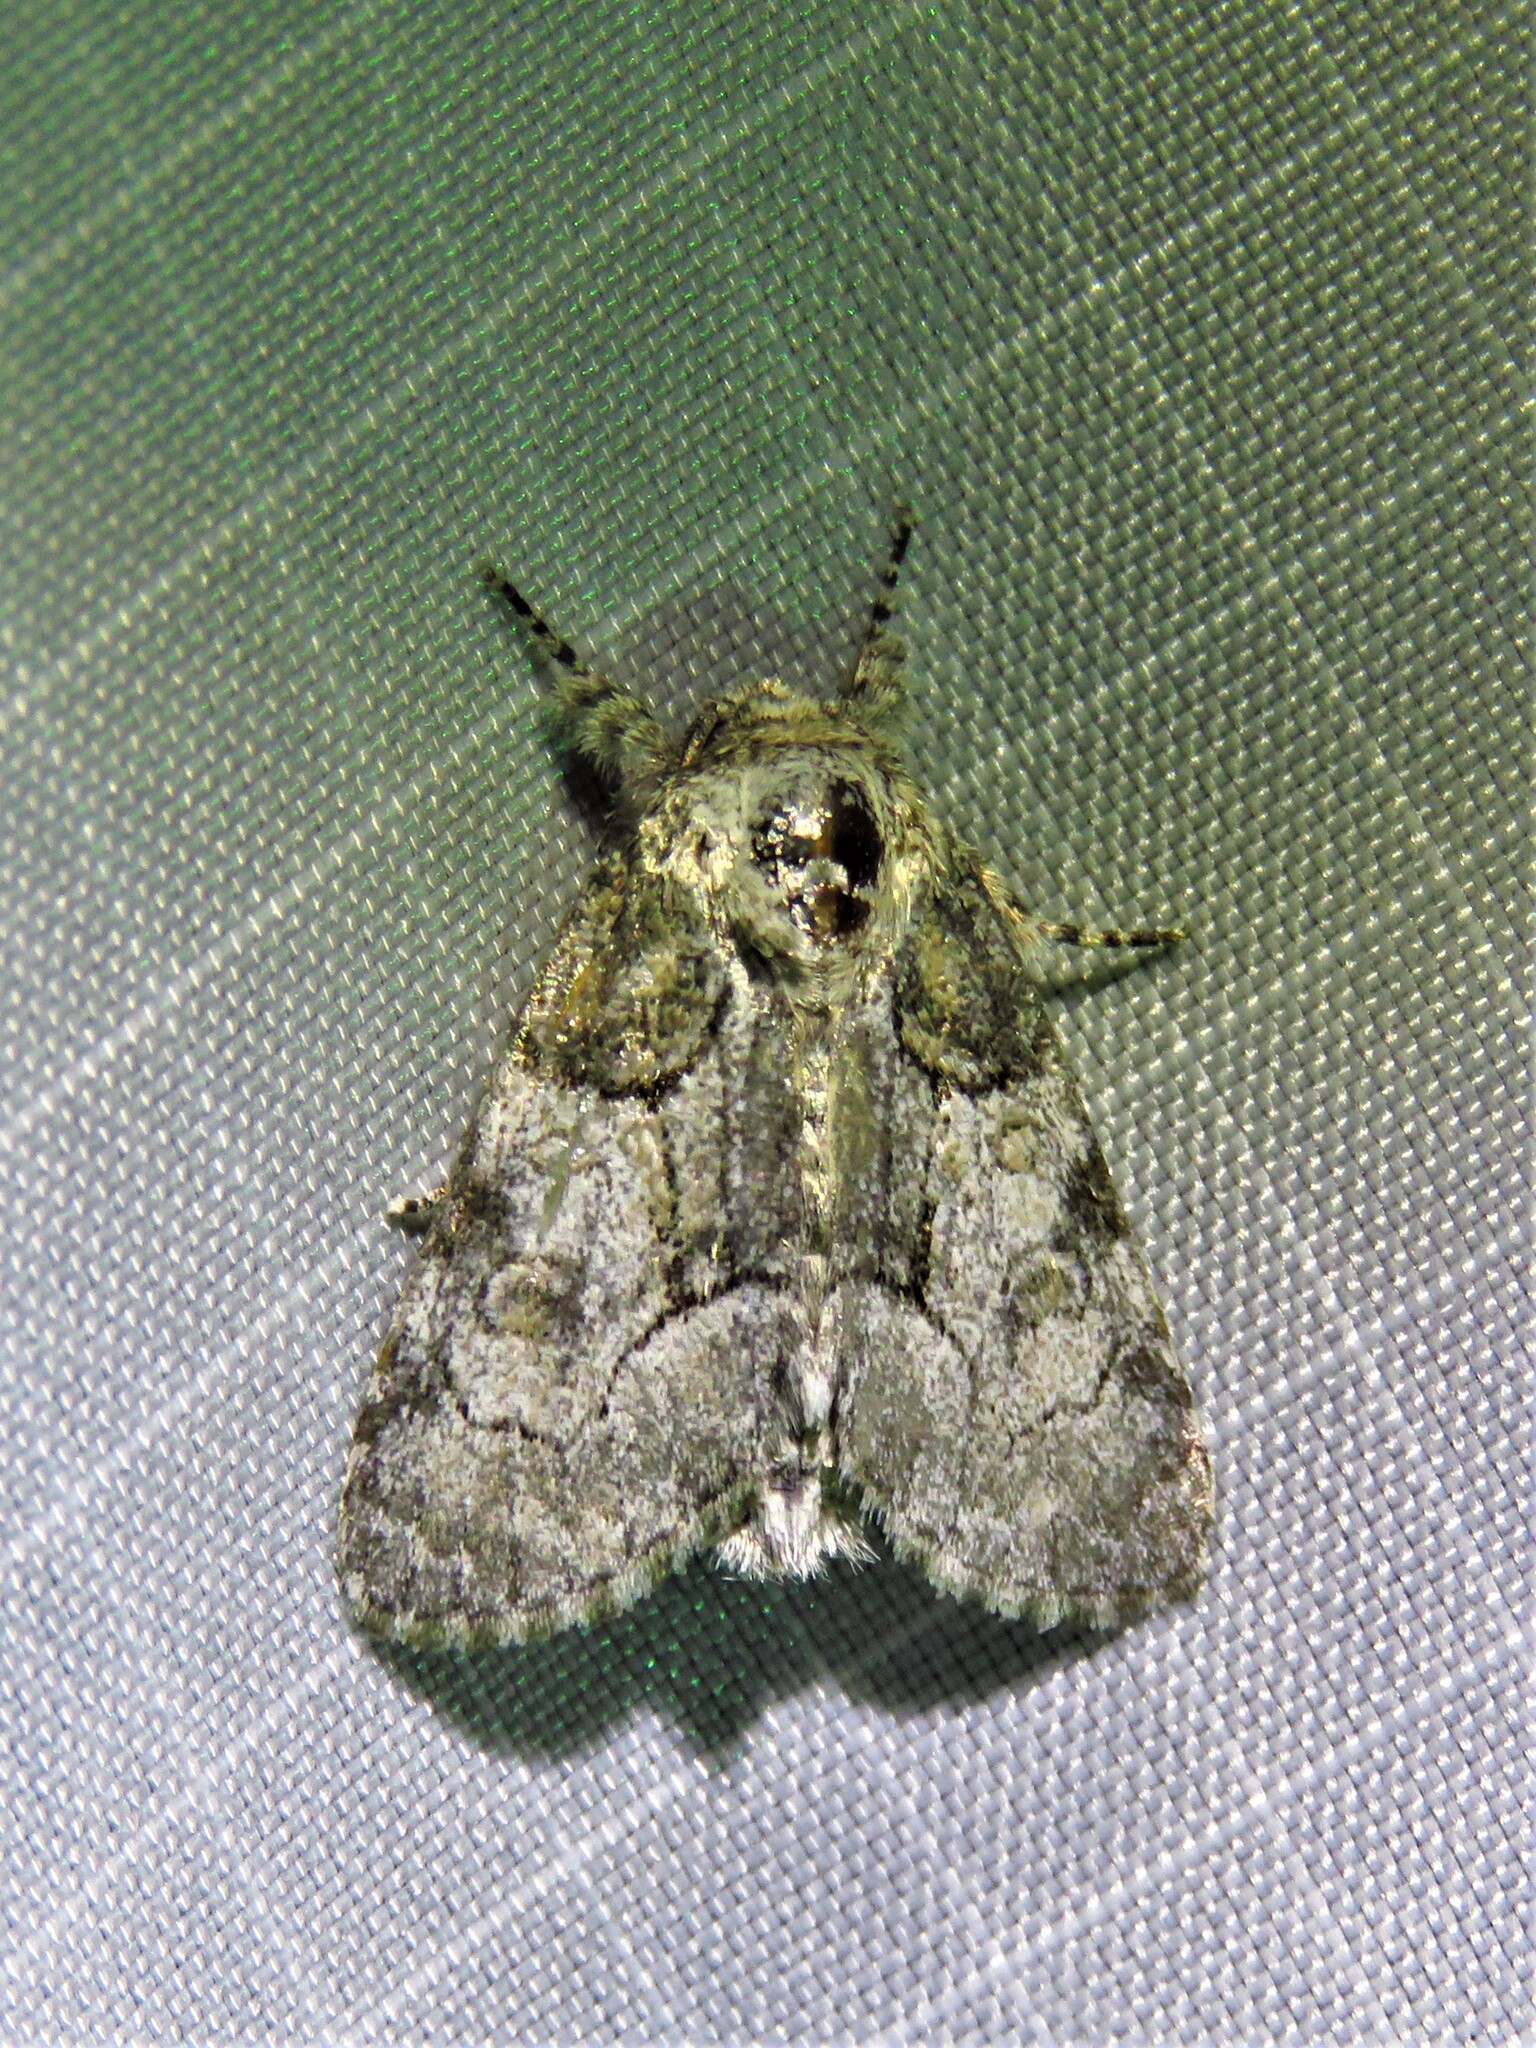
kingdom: Animalia
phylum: Arthropoda
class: Insecta
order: Lepidoptera
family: Noctuidae
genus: Raphia
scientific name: Raphia frater
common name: Brother
